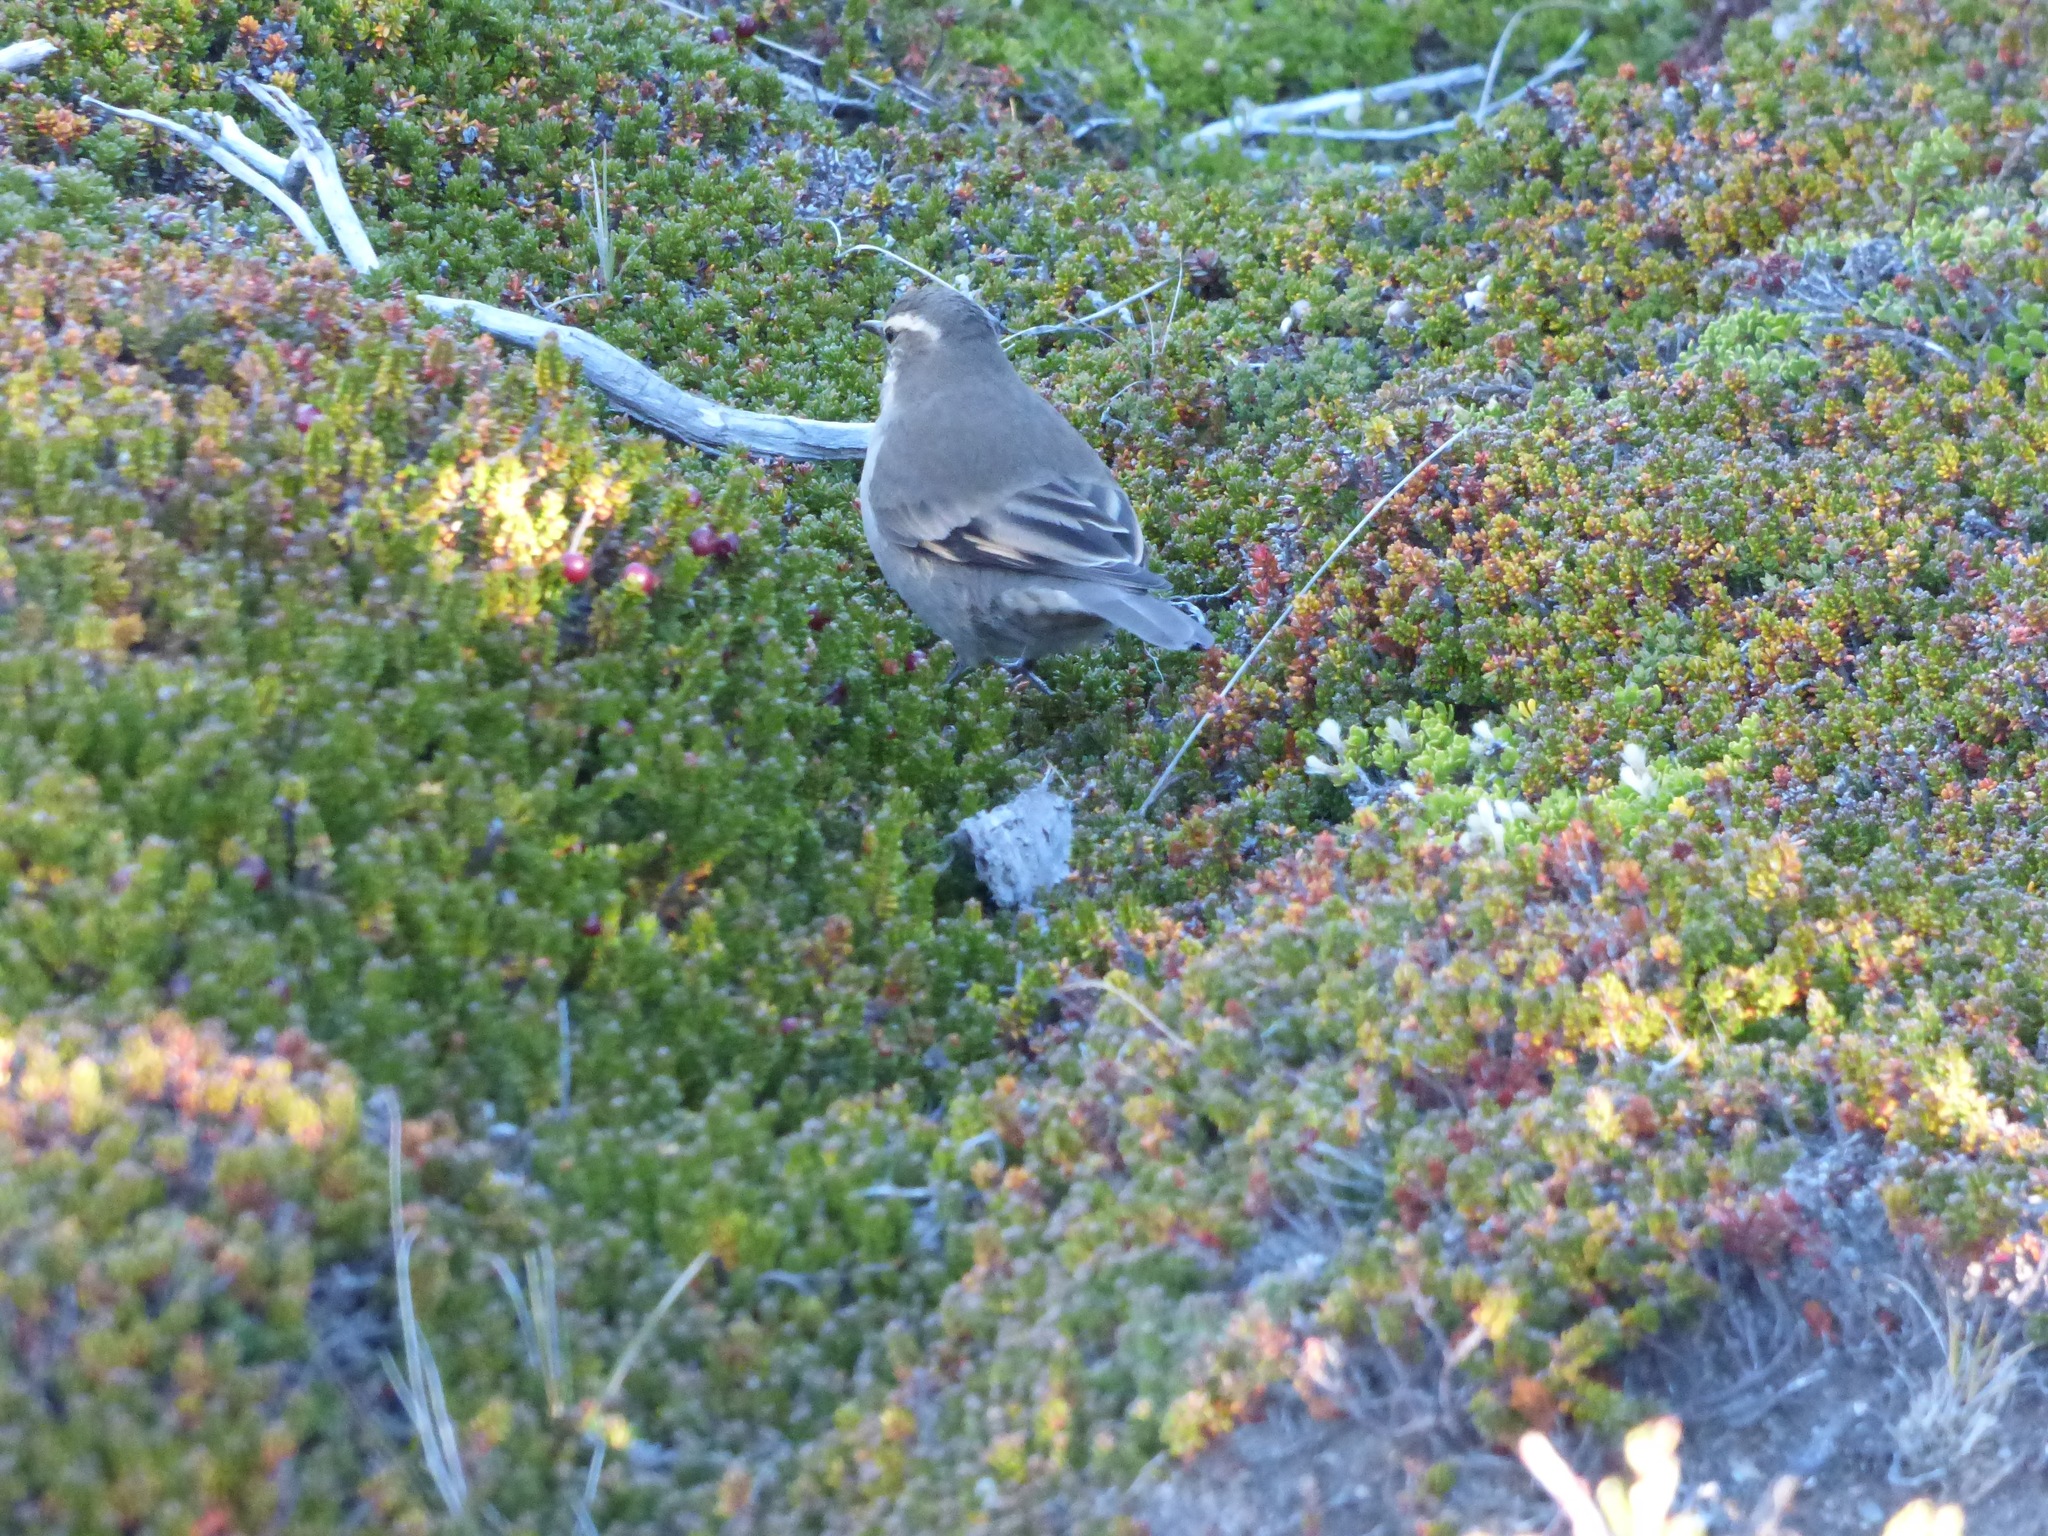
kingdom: Animalia
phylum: Chordata
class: Aves
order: Passeriformes
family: Furnariidae
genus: Cinclodes
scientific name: Cinclodes fuscus
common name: Buff-winged cinclodes
